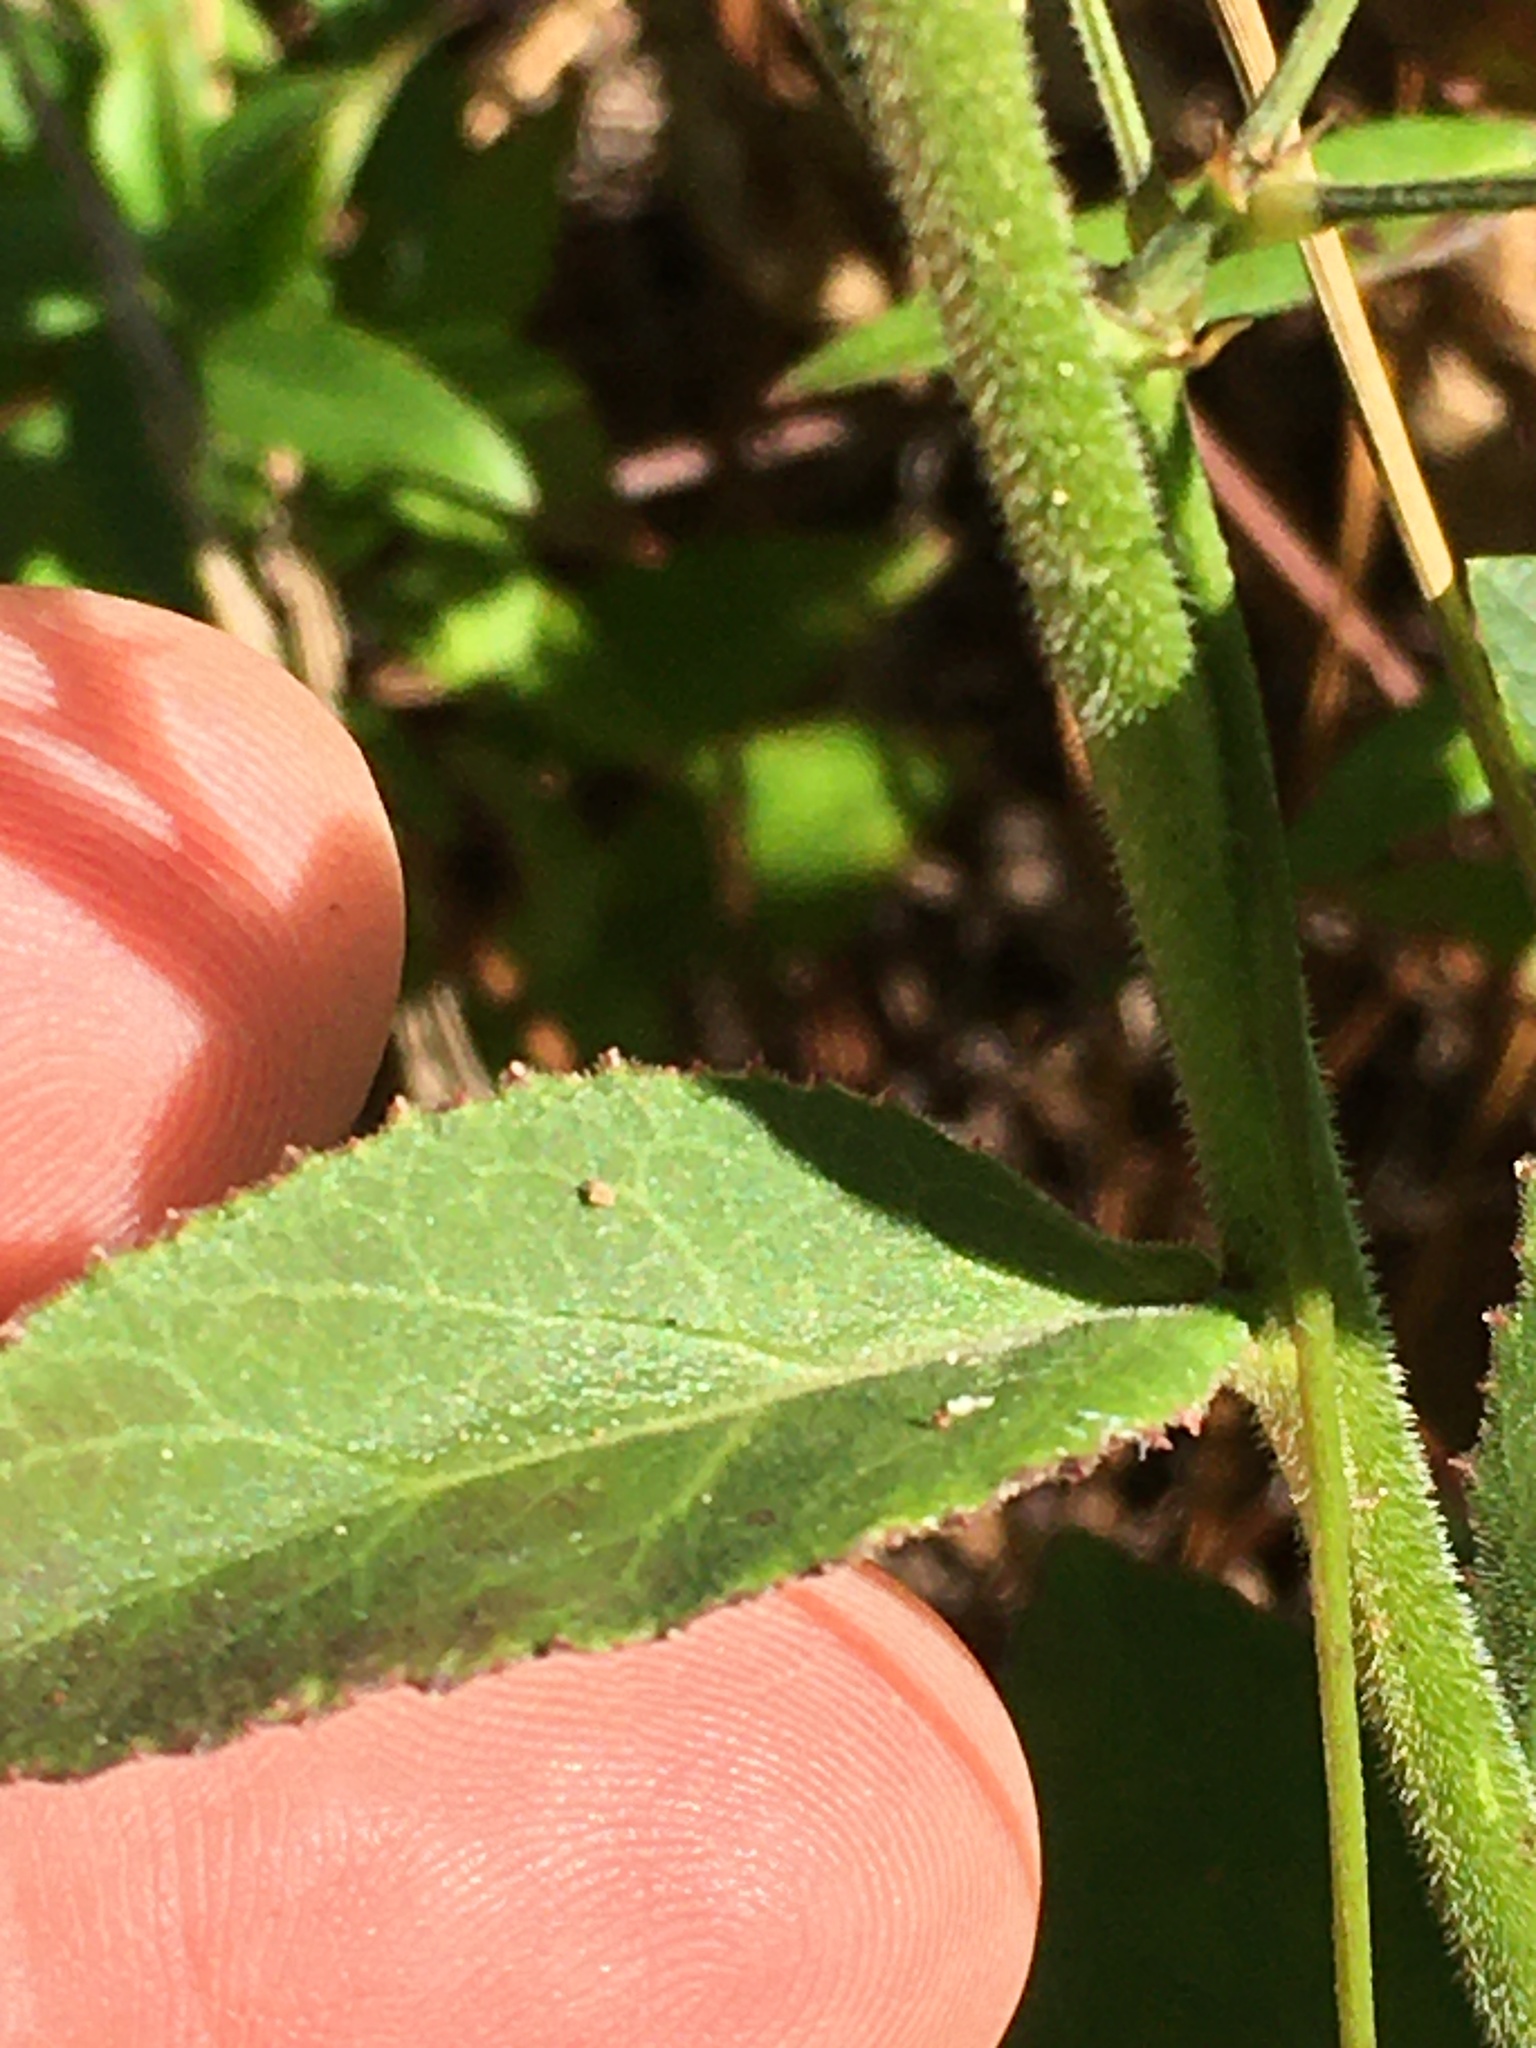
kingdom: Plantae
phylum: Tracheophyta
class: Magnoliopsida
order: Asterales
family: Campanulaceae
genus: Lobelia
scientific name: Lobelia puberula
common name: Purple dewdrop
